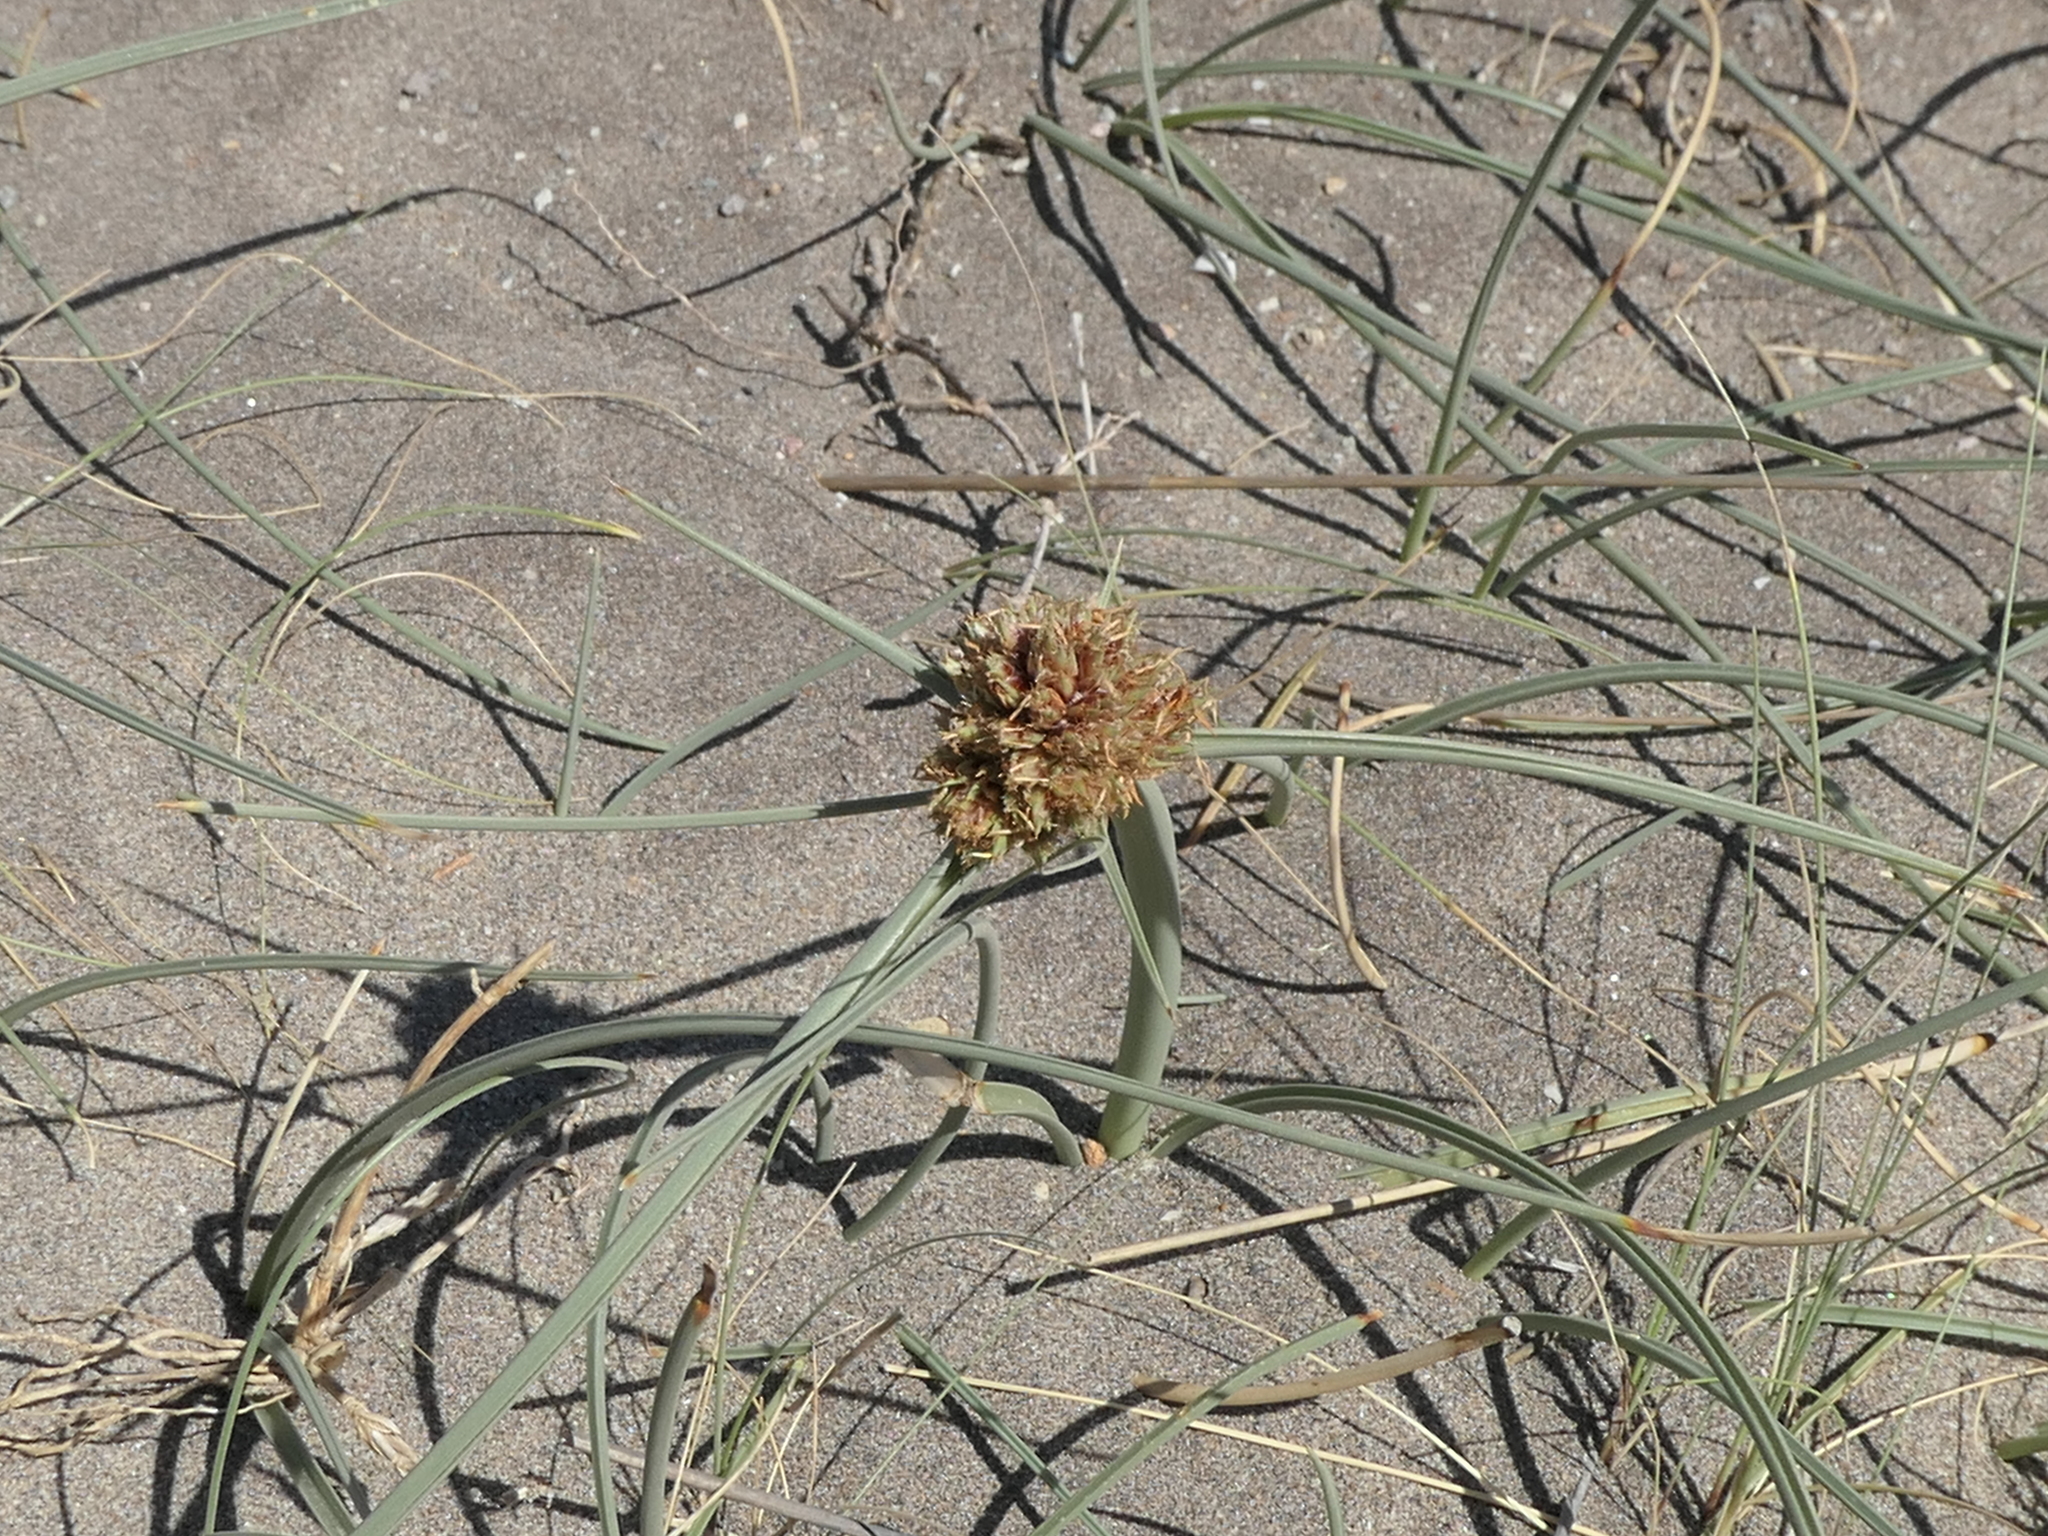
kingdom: Plantae
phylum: Tracheophyta
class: Liliopsida
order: Poales
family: Cyperaceae
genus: Cyperus
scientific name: Cyperus capitatus
